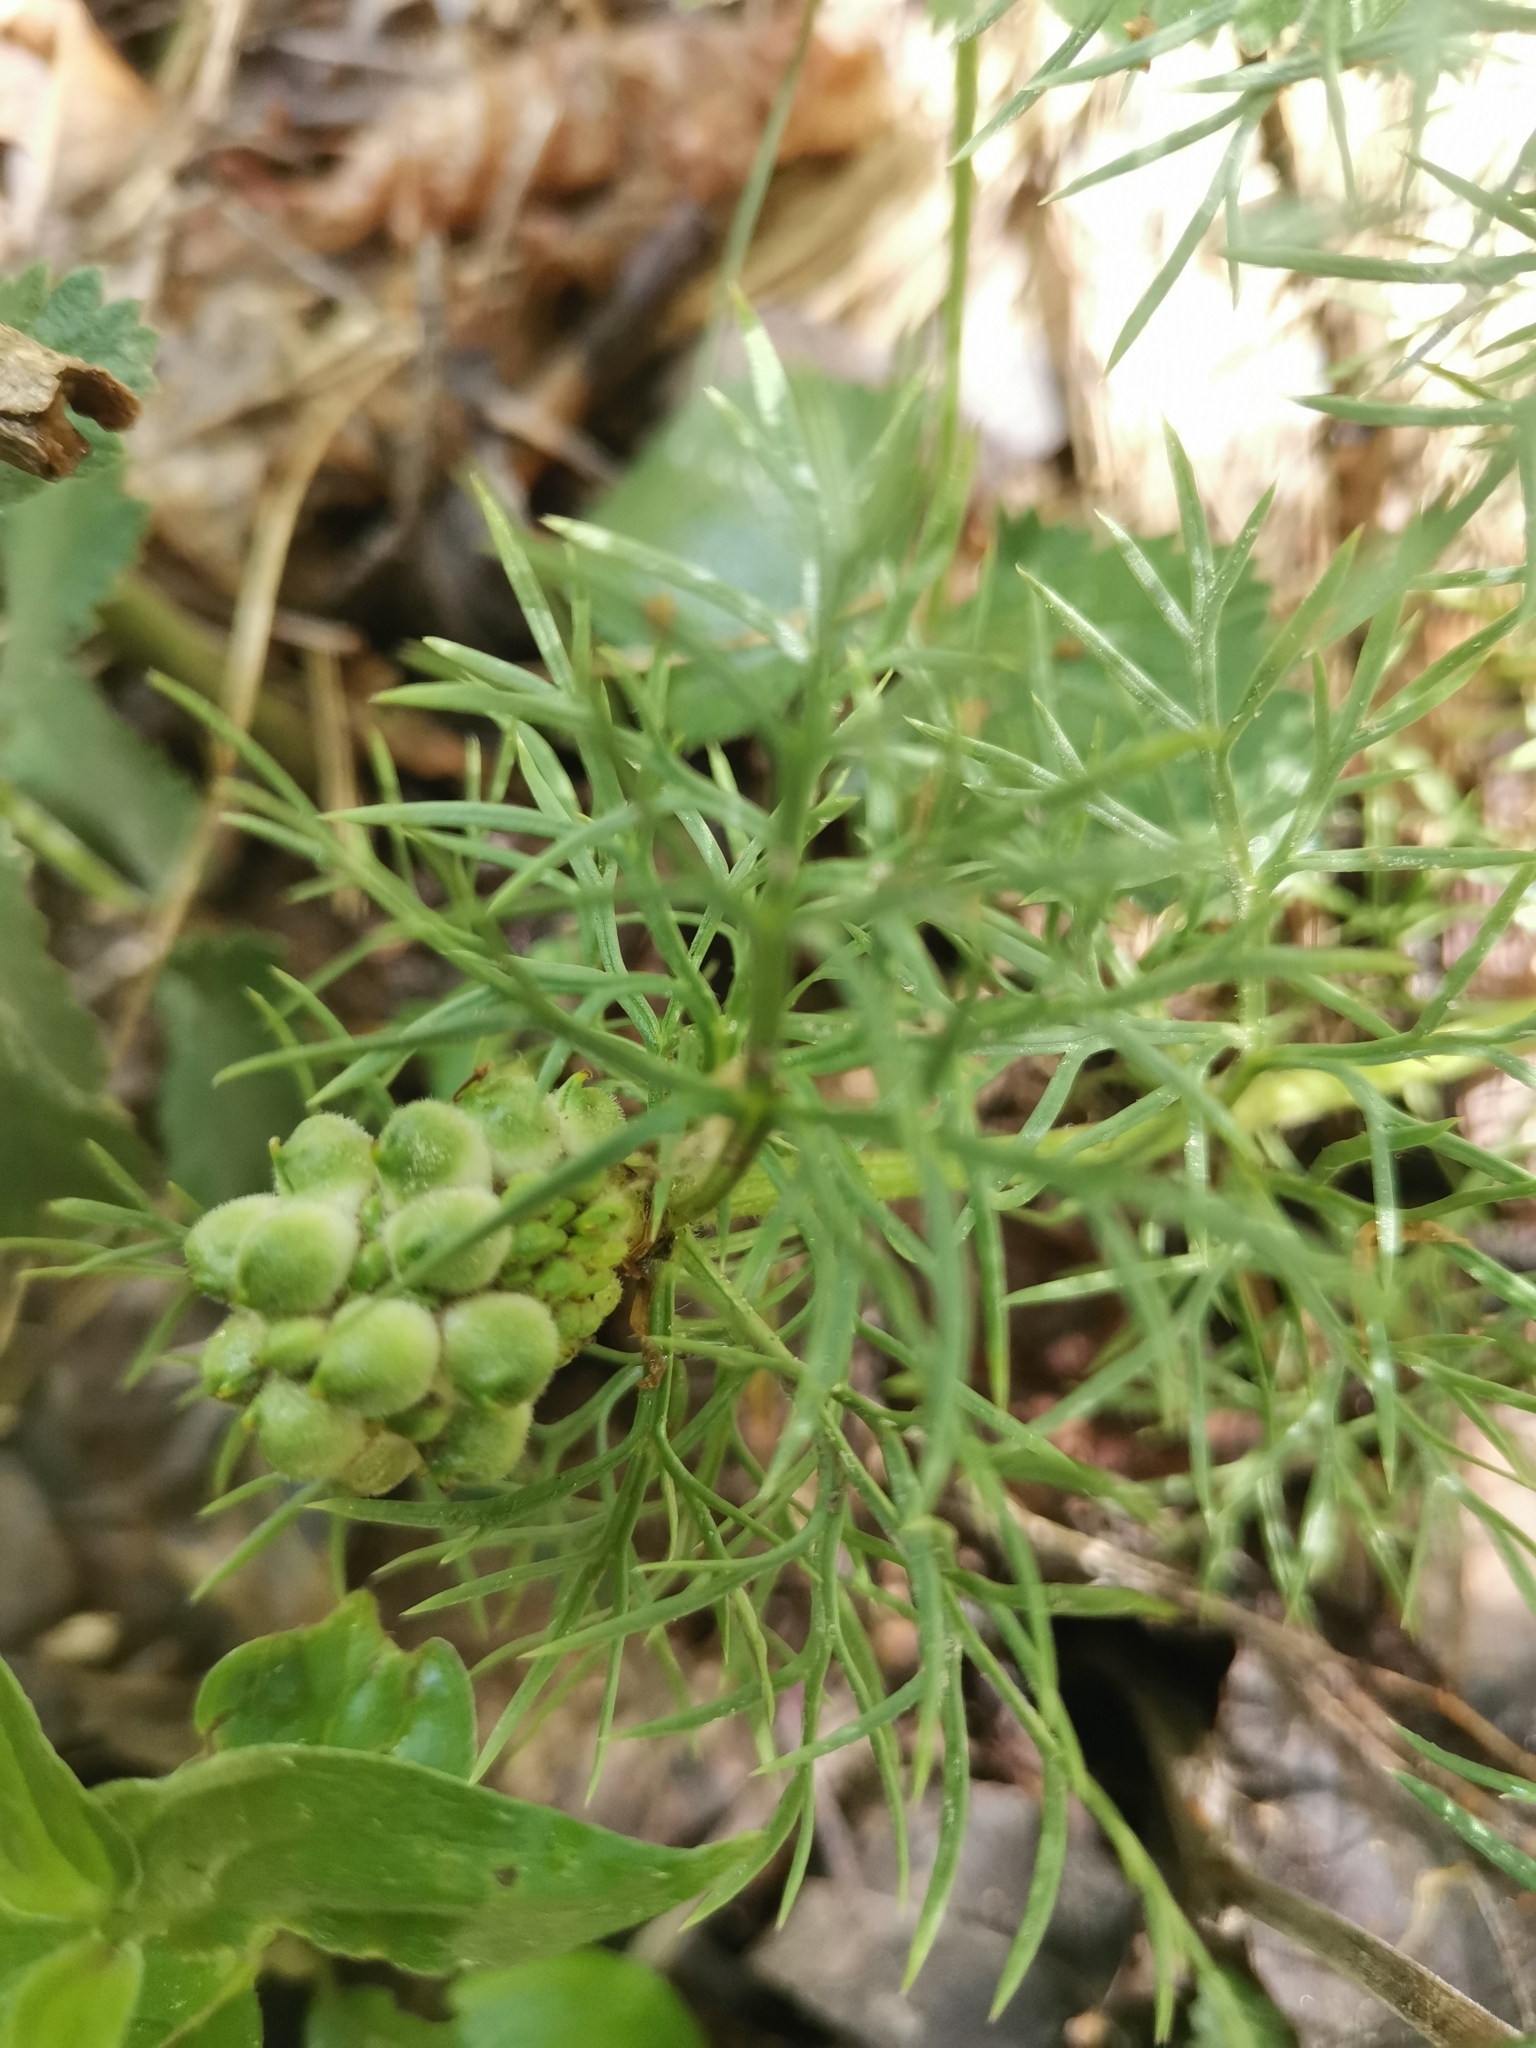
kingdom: Plantae
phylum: Tracheophyta
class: Magnoliopsida
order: Ranunculales
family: Ranunculaceae
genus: Adonis
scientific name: Adonis vernalis
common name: Yellow pheasants-eye
